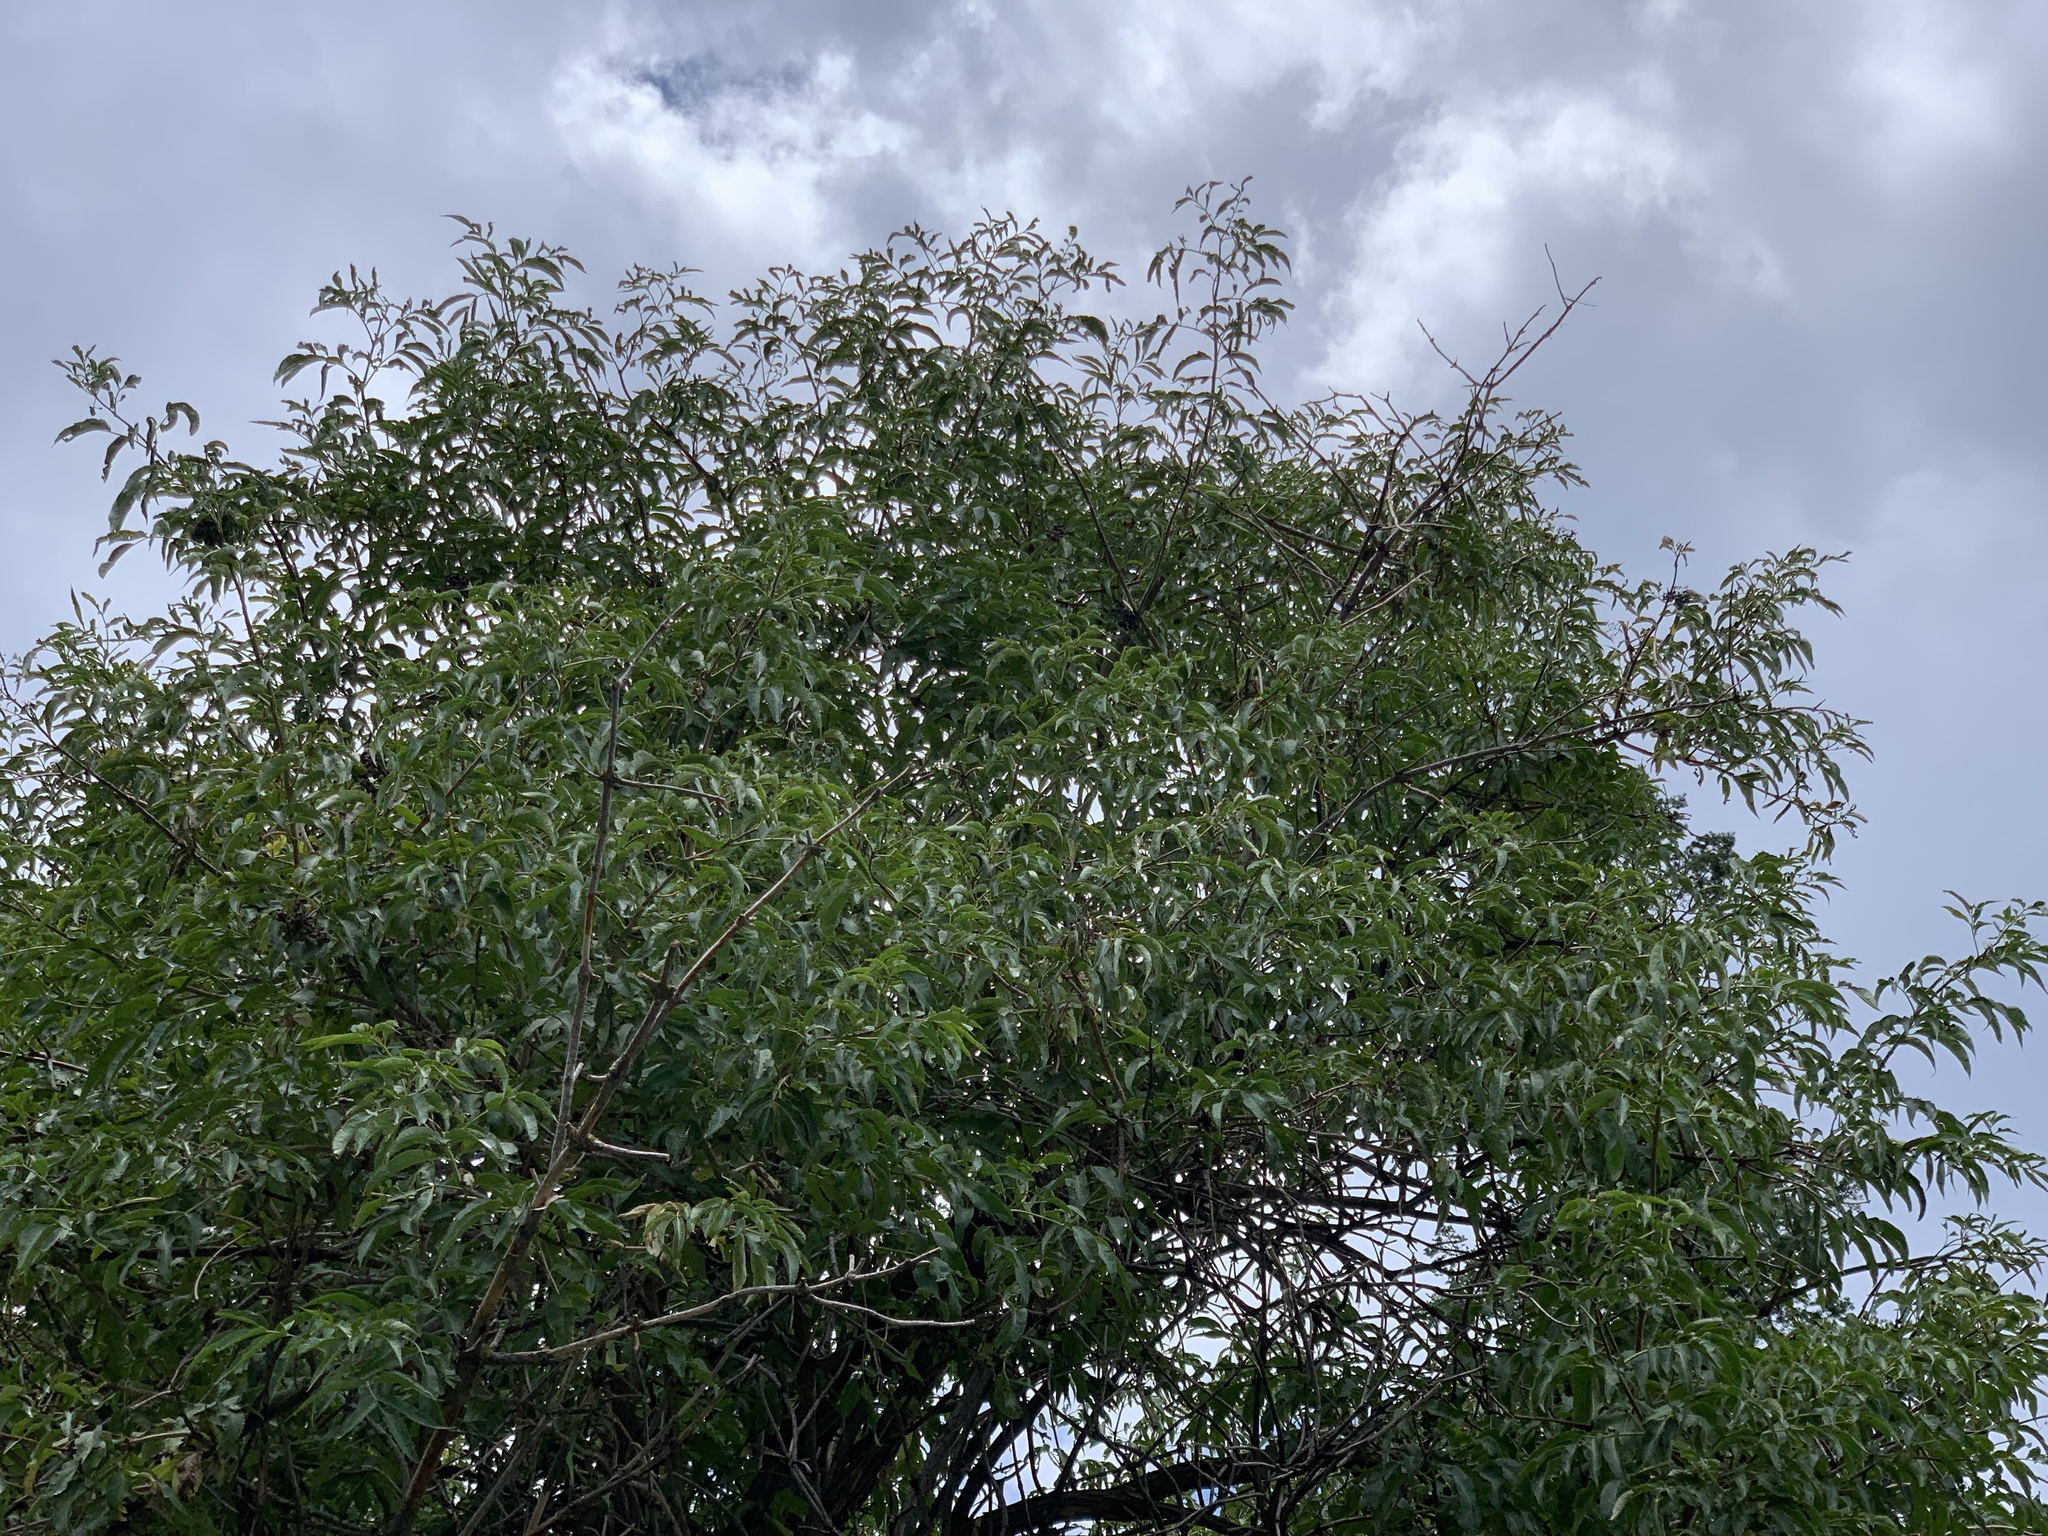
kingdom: Plantae
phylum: Tracheophyta
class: Magnoliopsida
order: Dipsacales
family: Viburnaceae
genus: Sambucus
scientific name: Sambucus cerulea
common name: Blue elder
